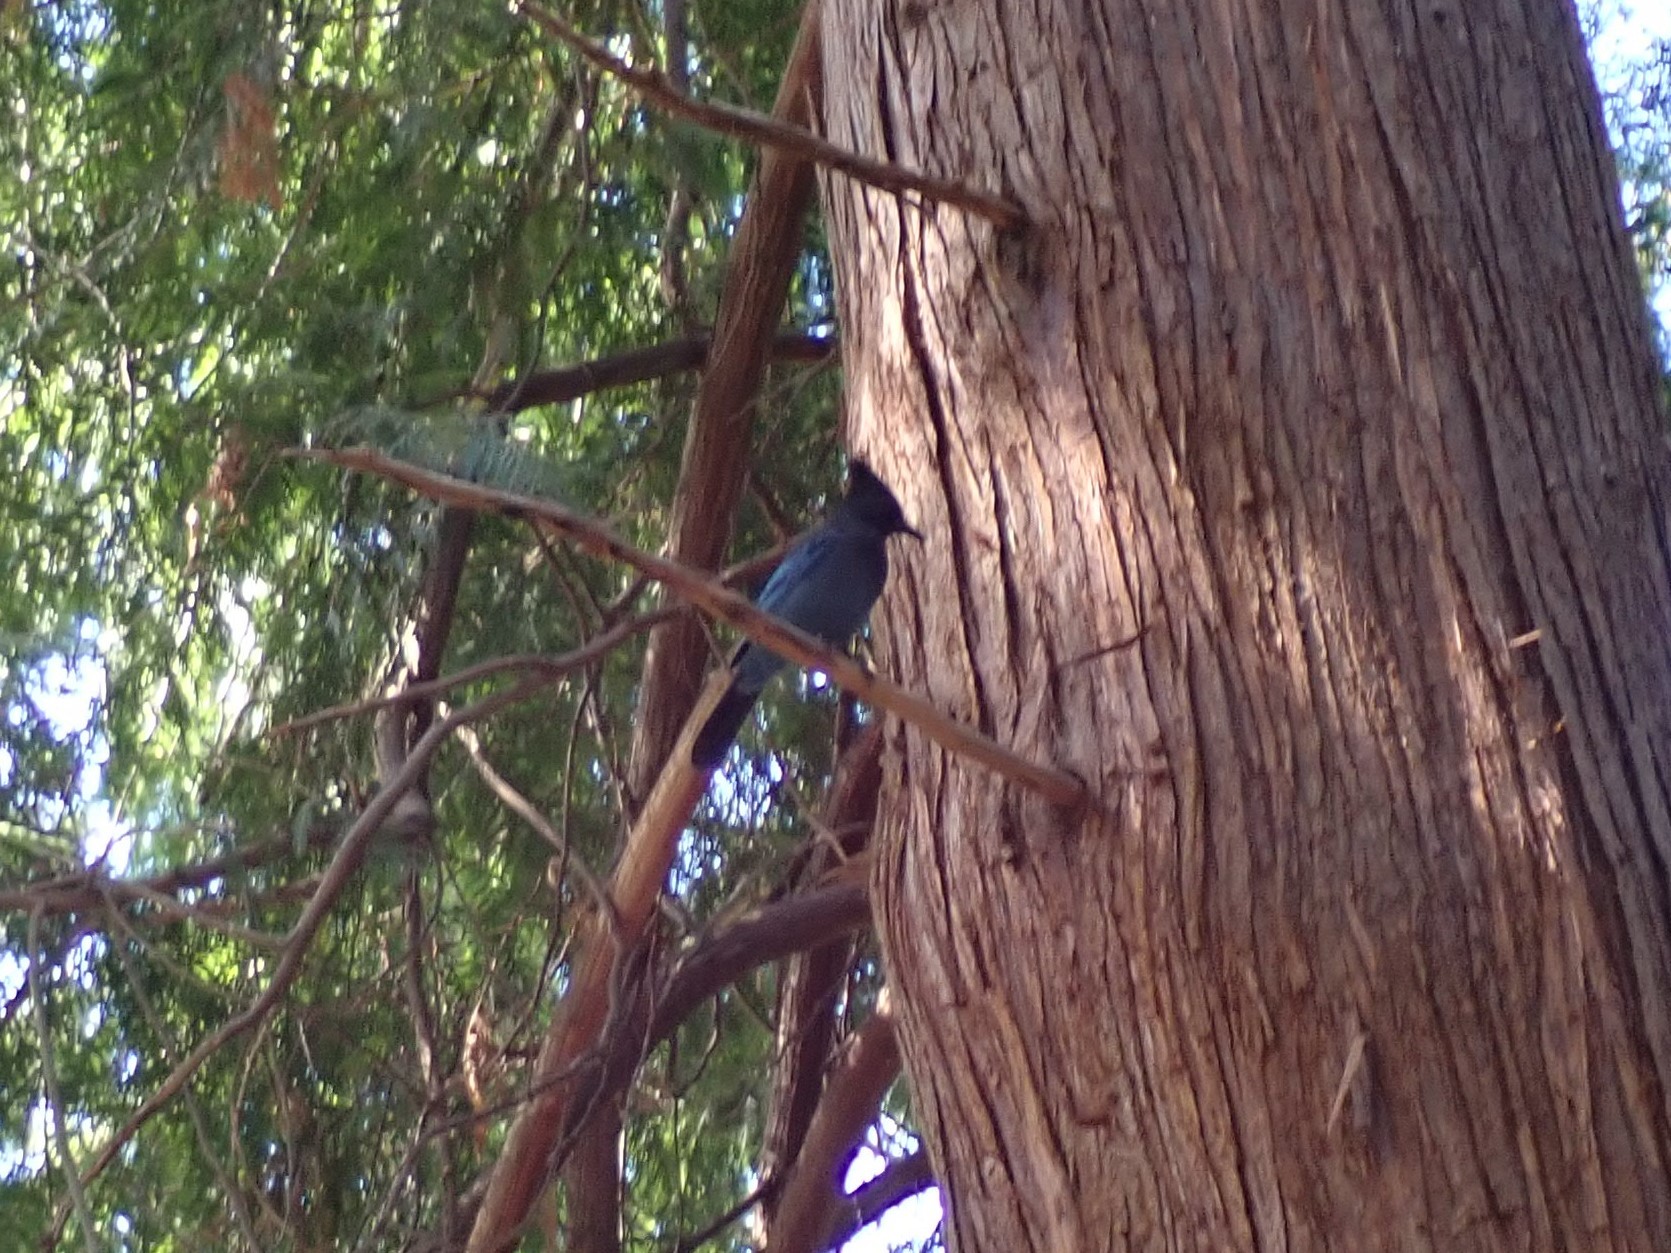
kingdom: Animalia
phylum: Chordata
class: Aves
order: Passeriformes
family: Corvidae
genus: Cyanocitta
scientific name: Cyanocitta stelleri
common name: Steller's jay
